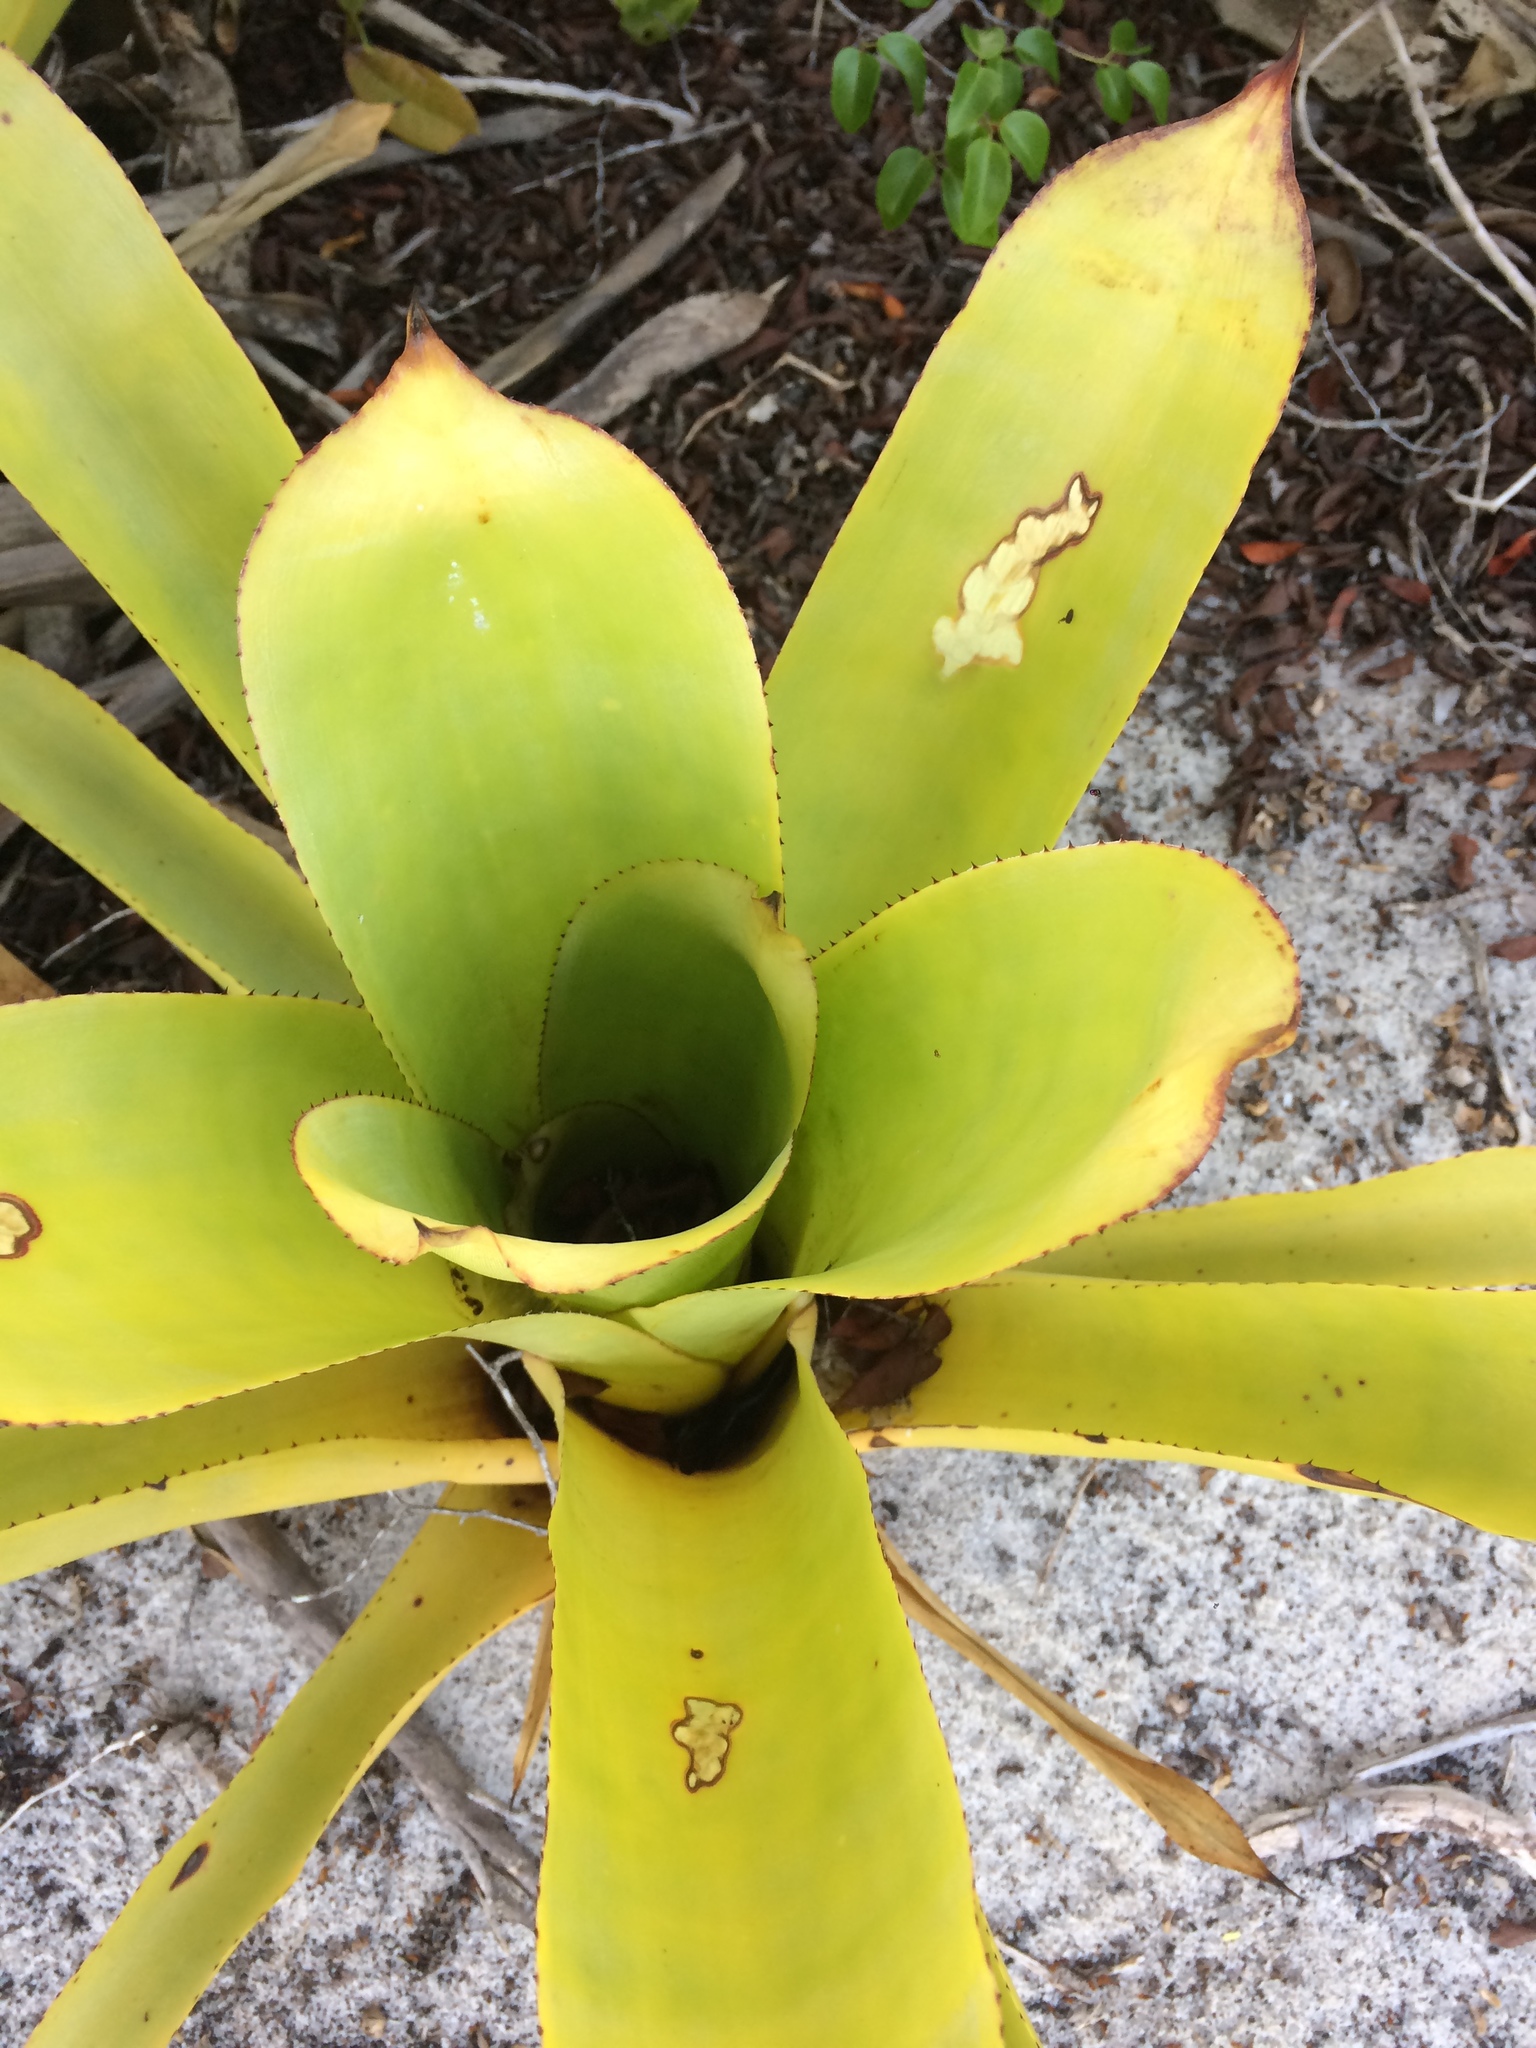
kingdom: Plantae
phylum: Tracheophyta
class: Liliopsida
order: Poales
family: Bromeliaceae
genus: Hohenbergia
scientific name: Hohenbergia littoralis
